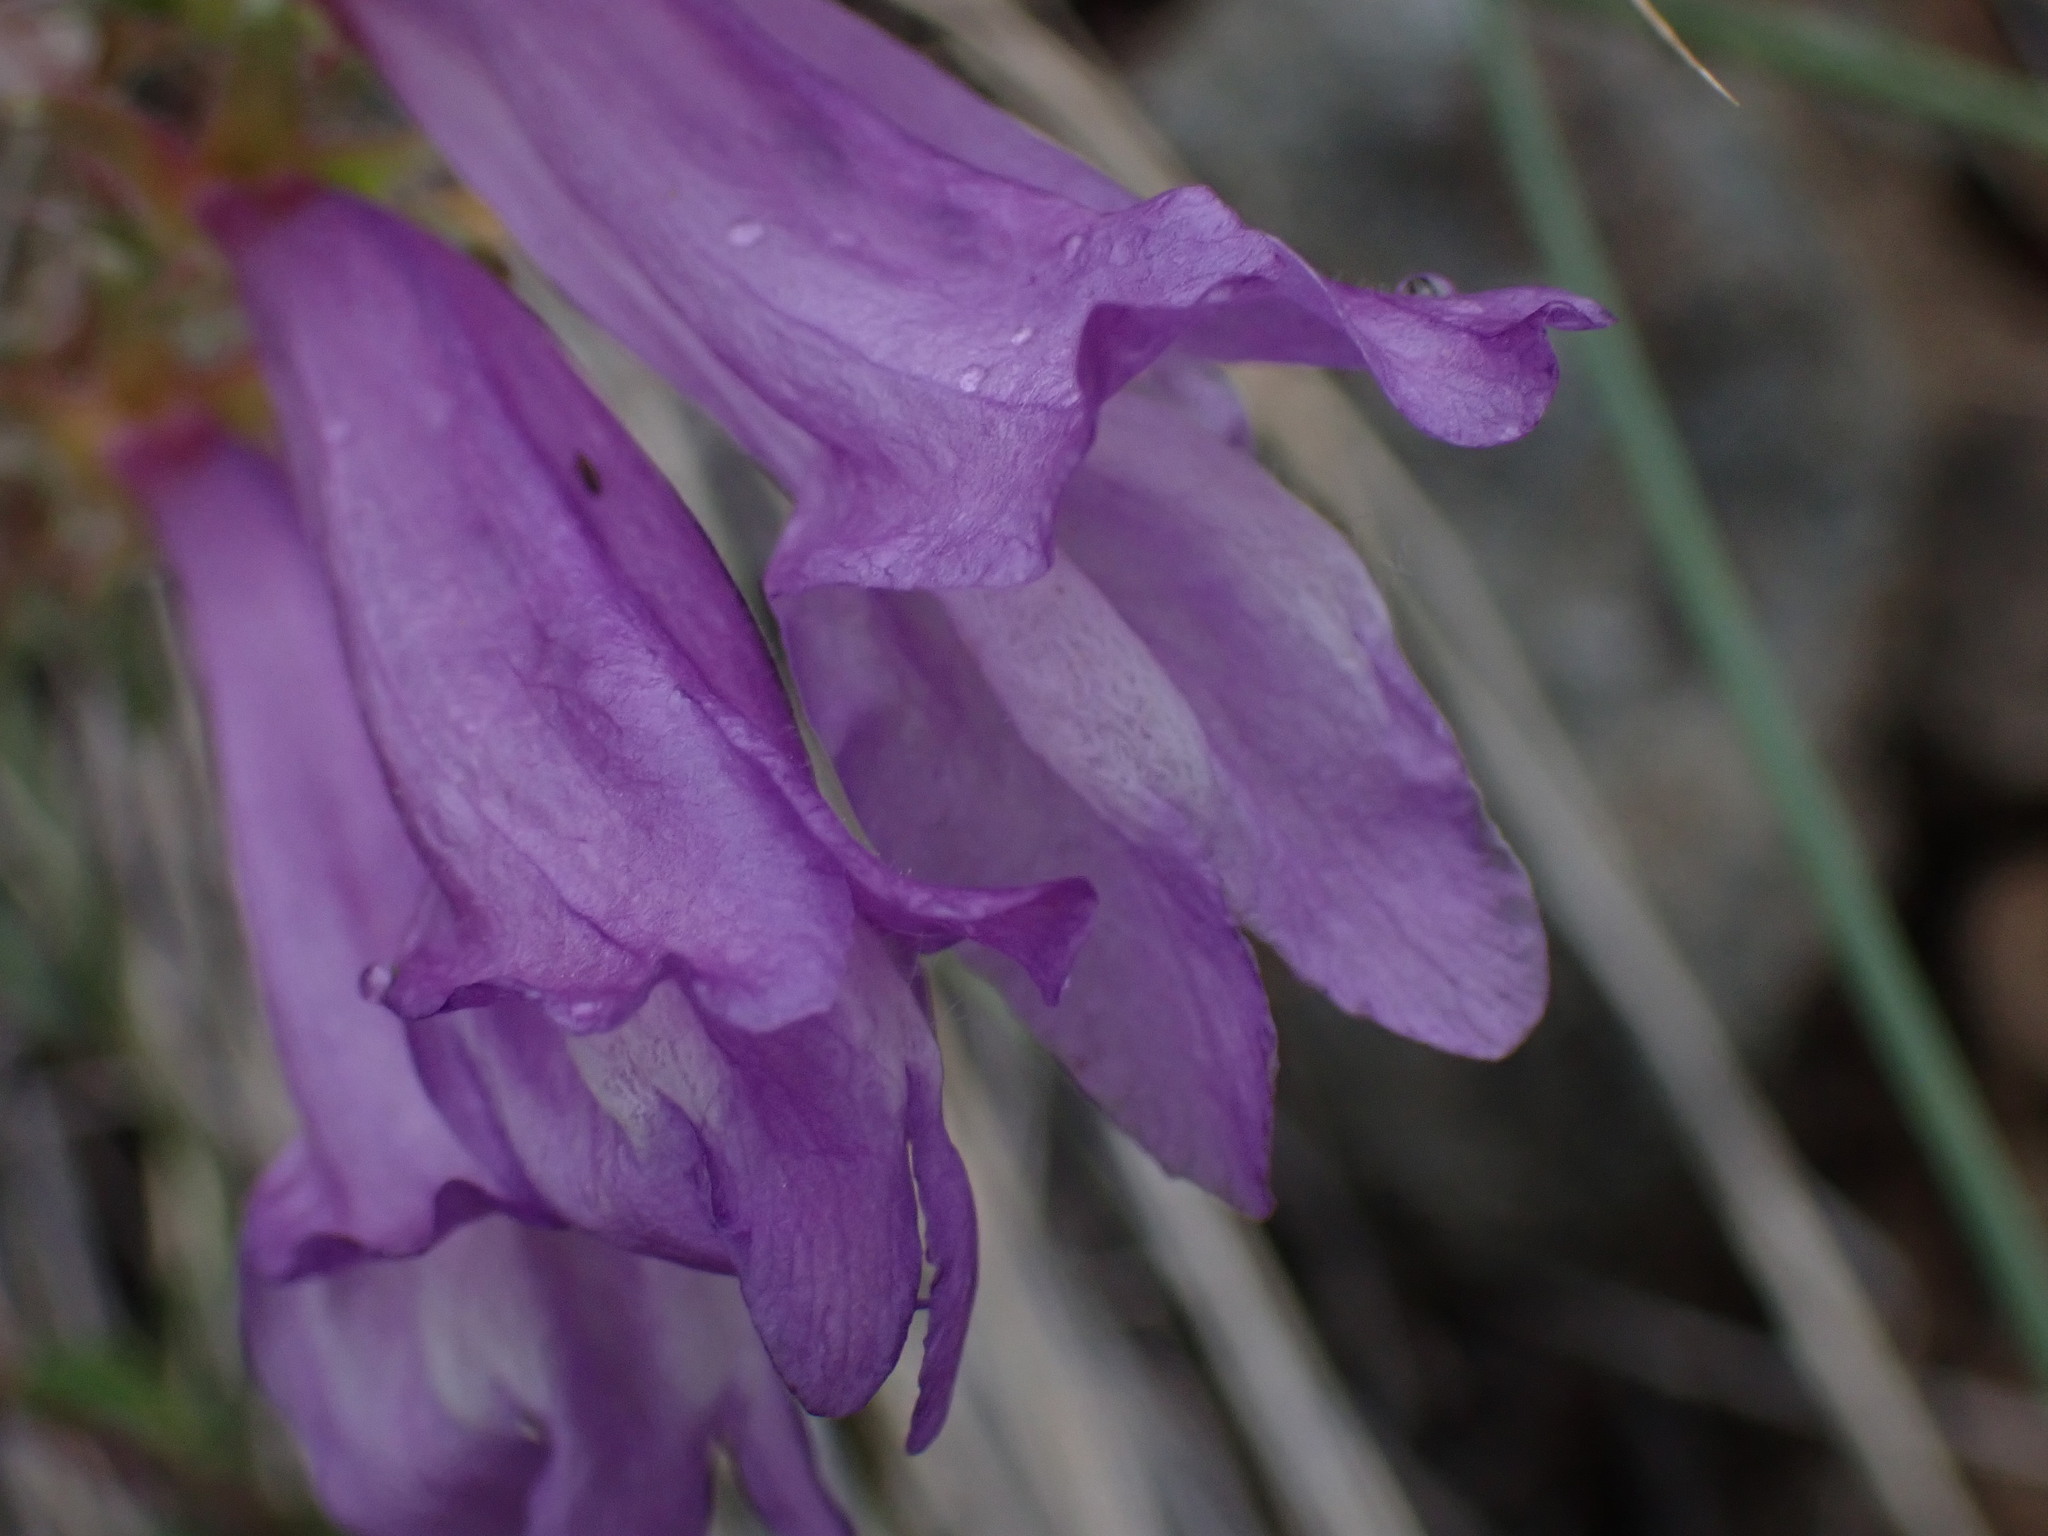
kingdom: Plantae
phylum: Tracheophyta
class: Magnoliopsida
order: Lamiales
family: Plantaginaceae
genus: Penstemon
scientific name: Penstemon fruticosus
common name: Bush penstemon
